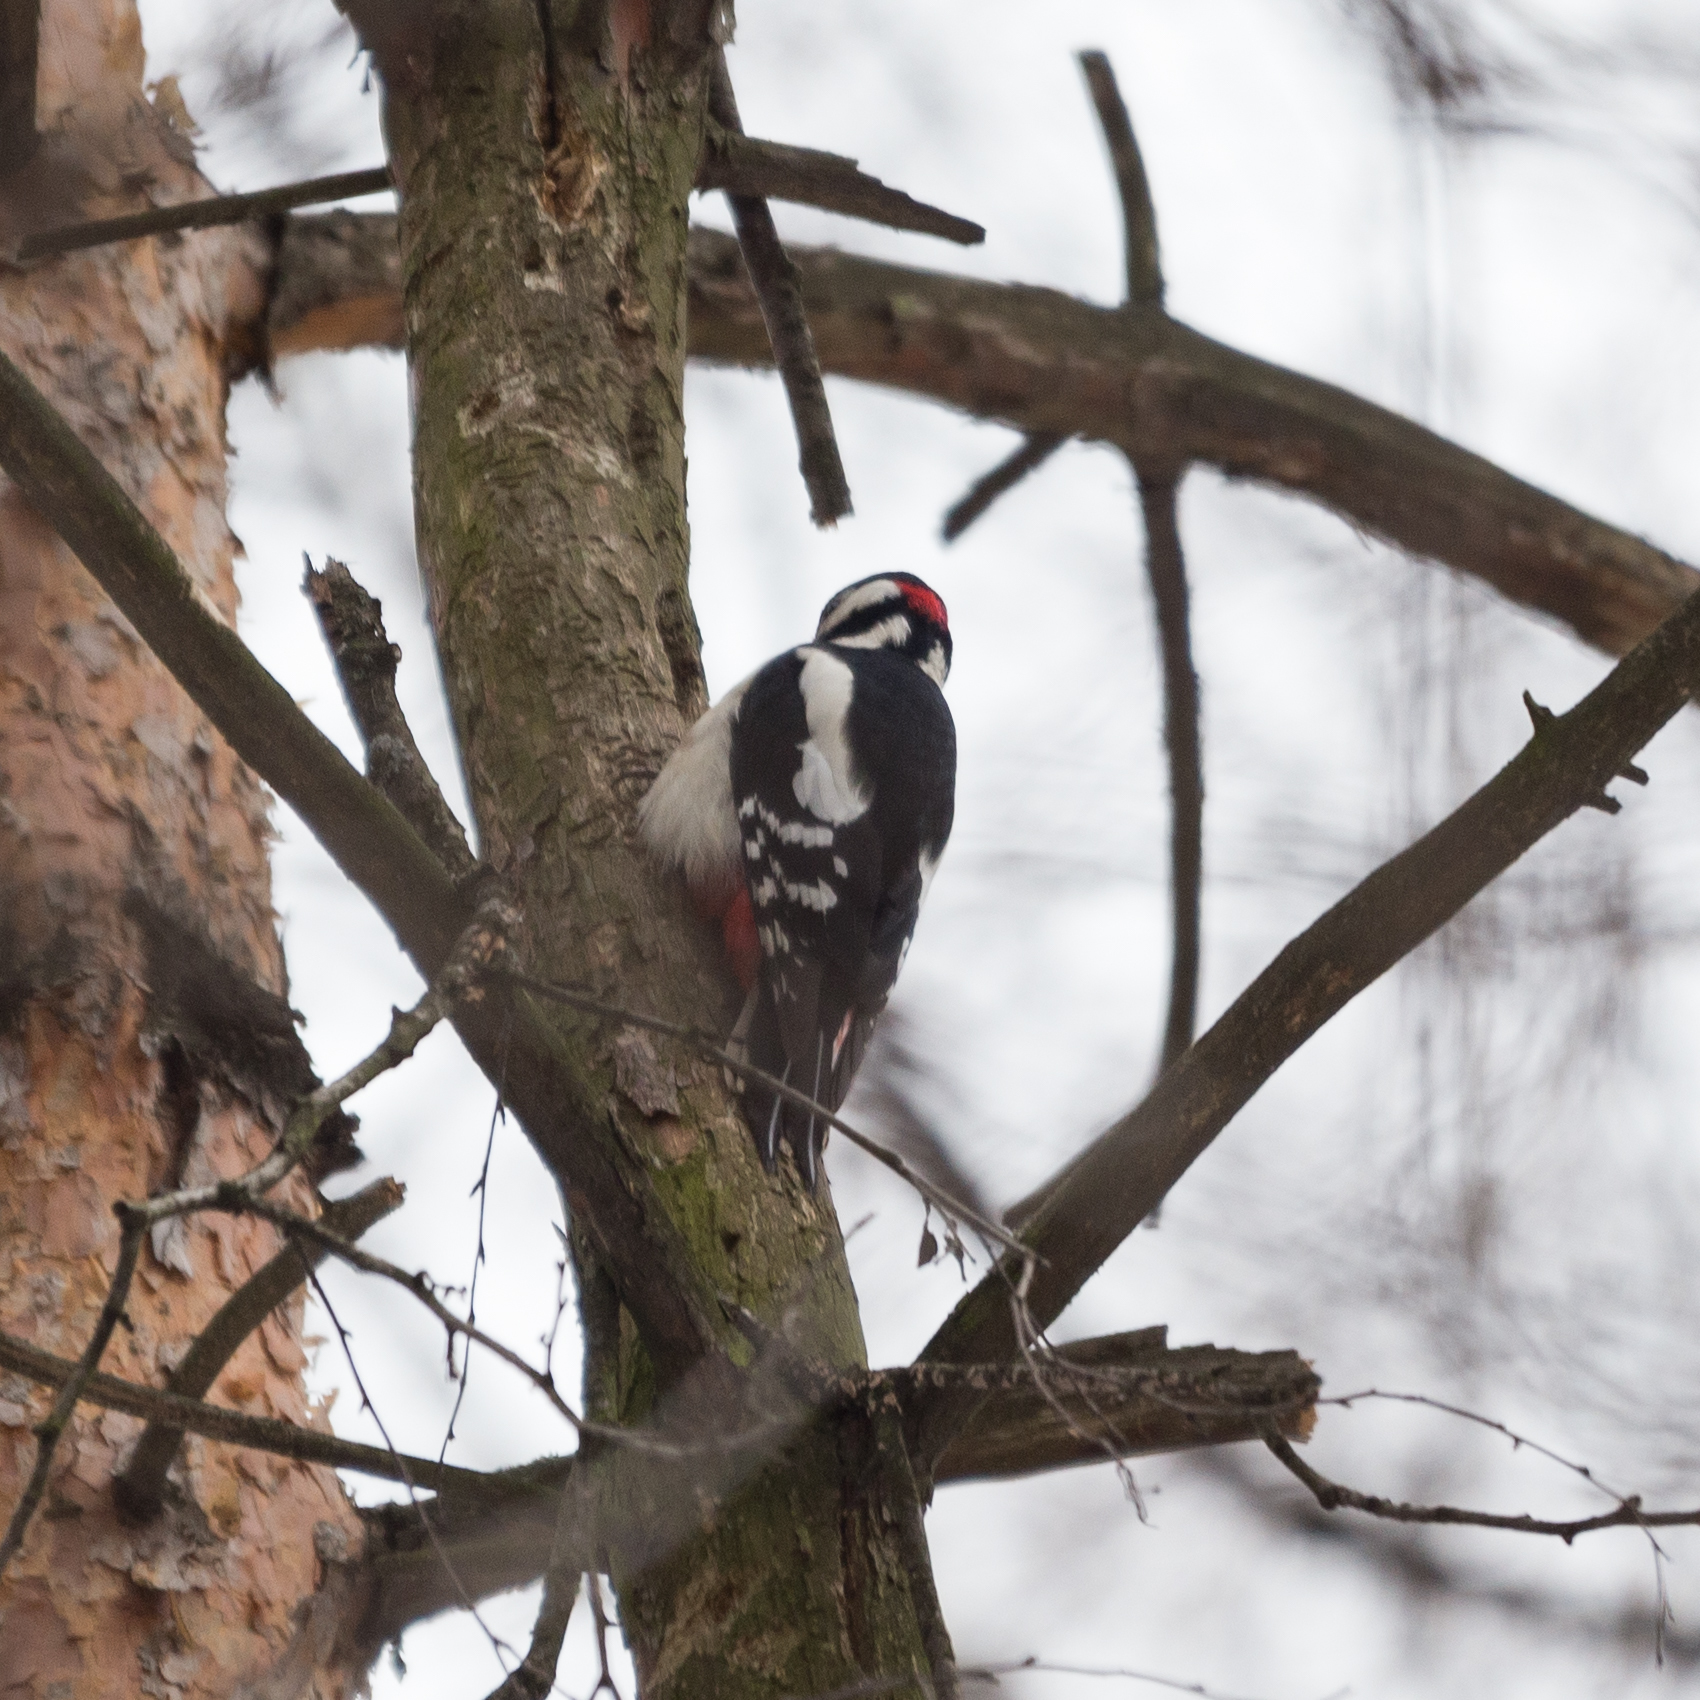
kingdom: Animalia
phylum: Chordata
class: Aves
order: Piciformes
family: Picidae
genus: Dendrocopos
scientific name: Dendrocopos major
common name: Great spotted woodpecker
